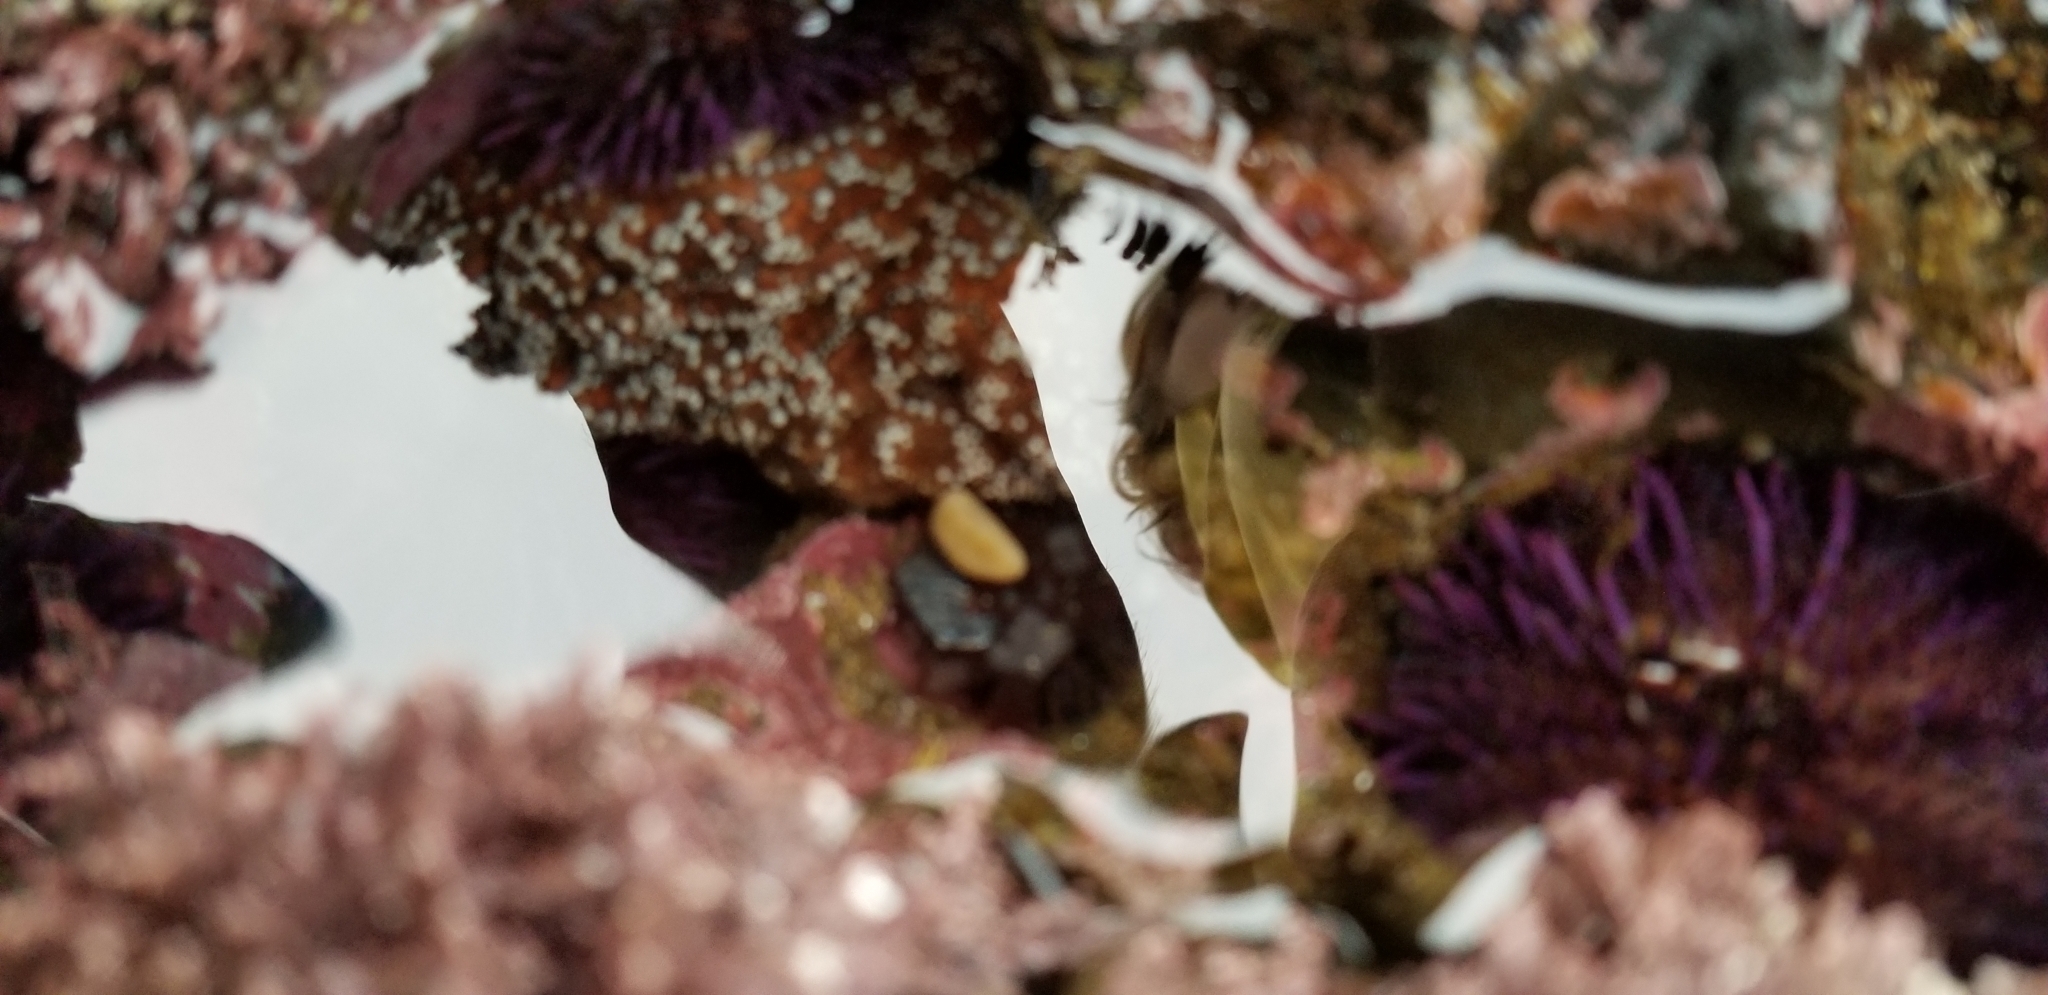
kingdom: Animalia
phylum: Echinodermata
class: Asteroidea
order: Forcipulatida
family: Asteriidae
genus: Pisaster
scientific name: Pisaster ochraceus
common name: Ochre stars
